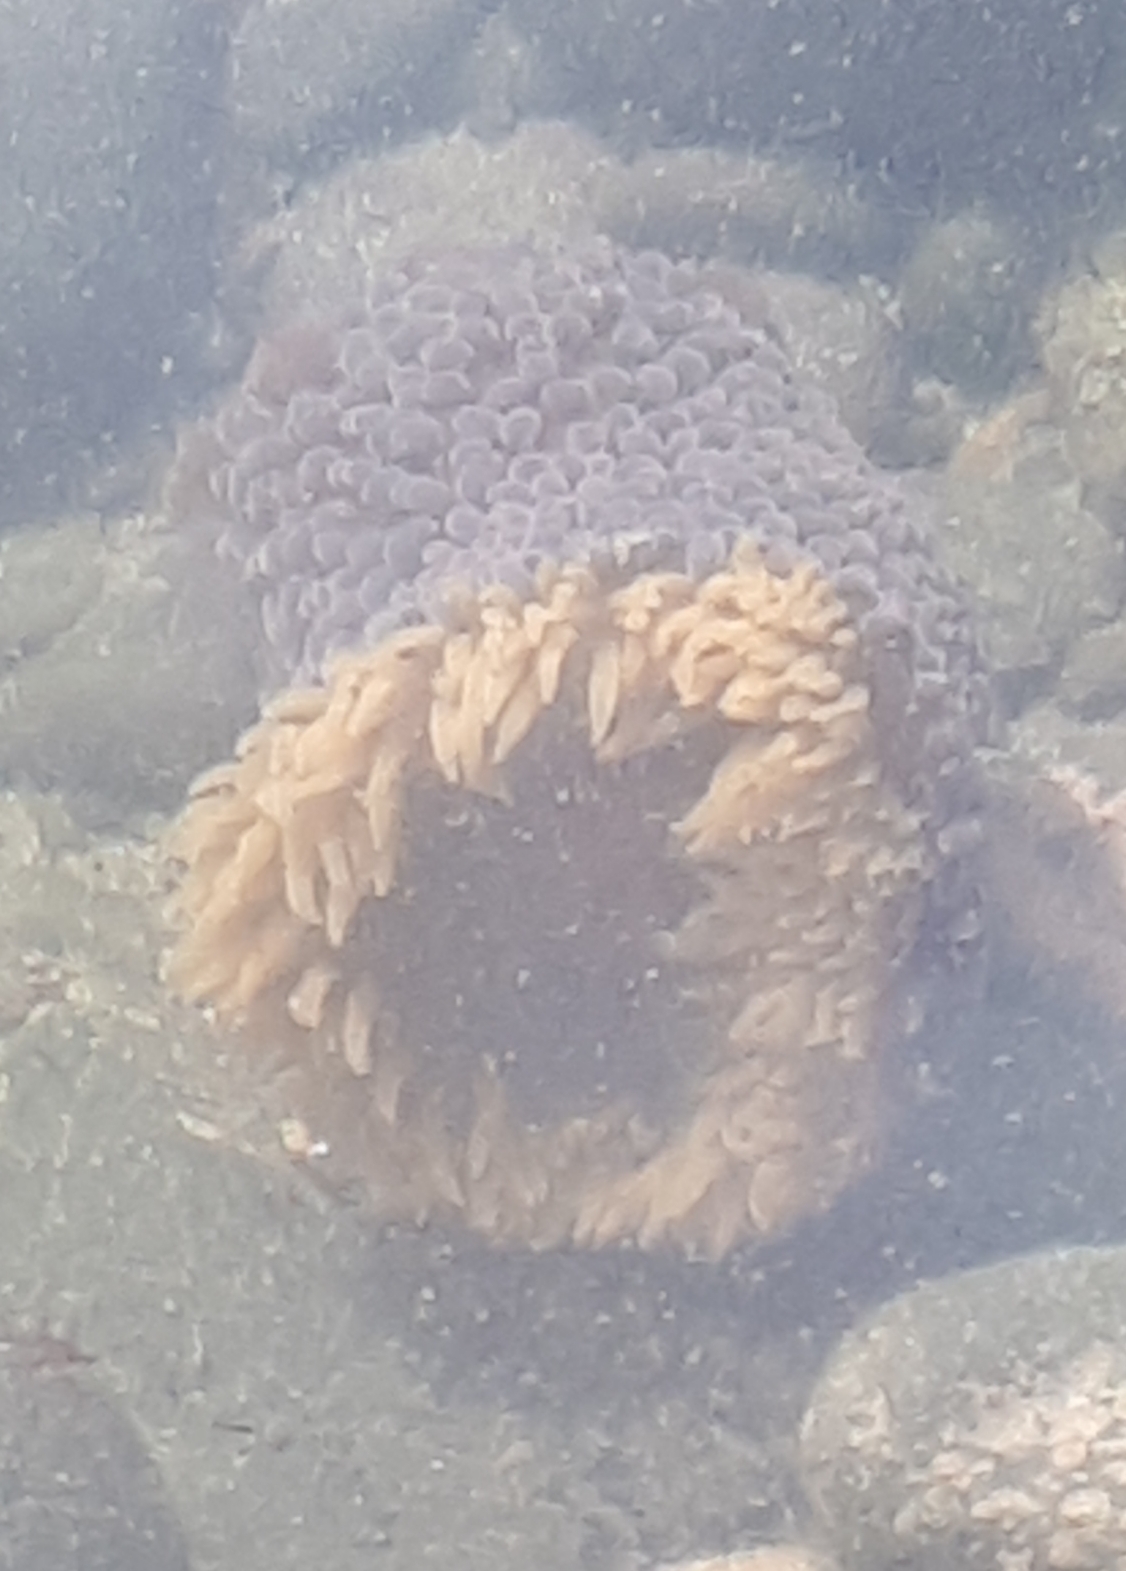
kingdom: Animalia
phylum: Cnidaria
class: Anthozoa
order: Actiniaria
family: Actiniidae
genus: Phlyctenactis
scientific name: Phlyctenactis tuberculosa
